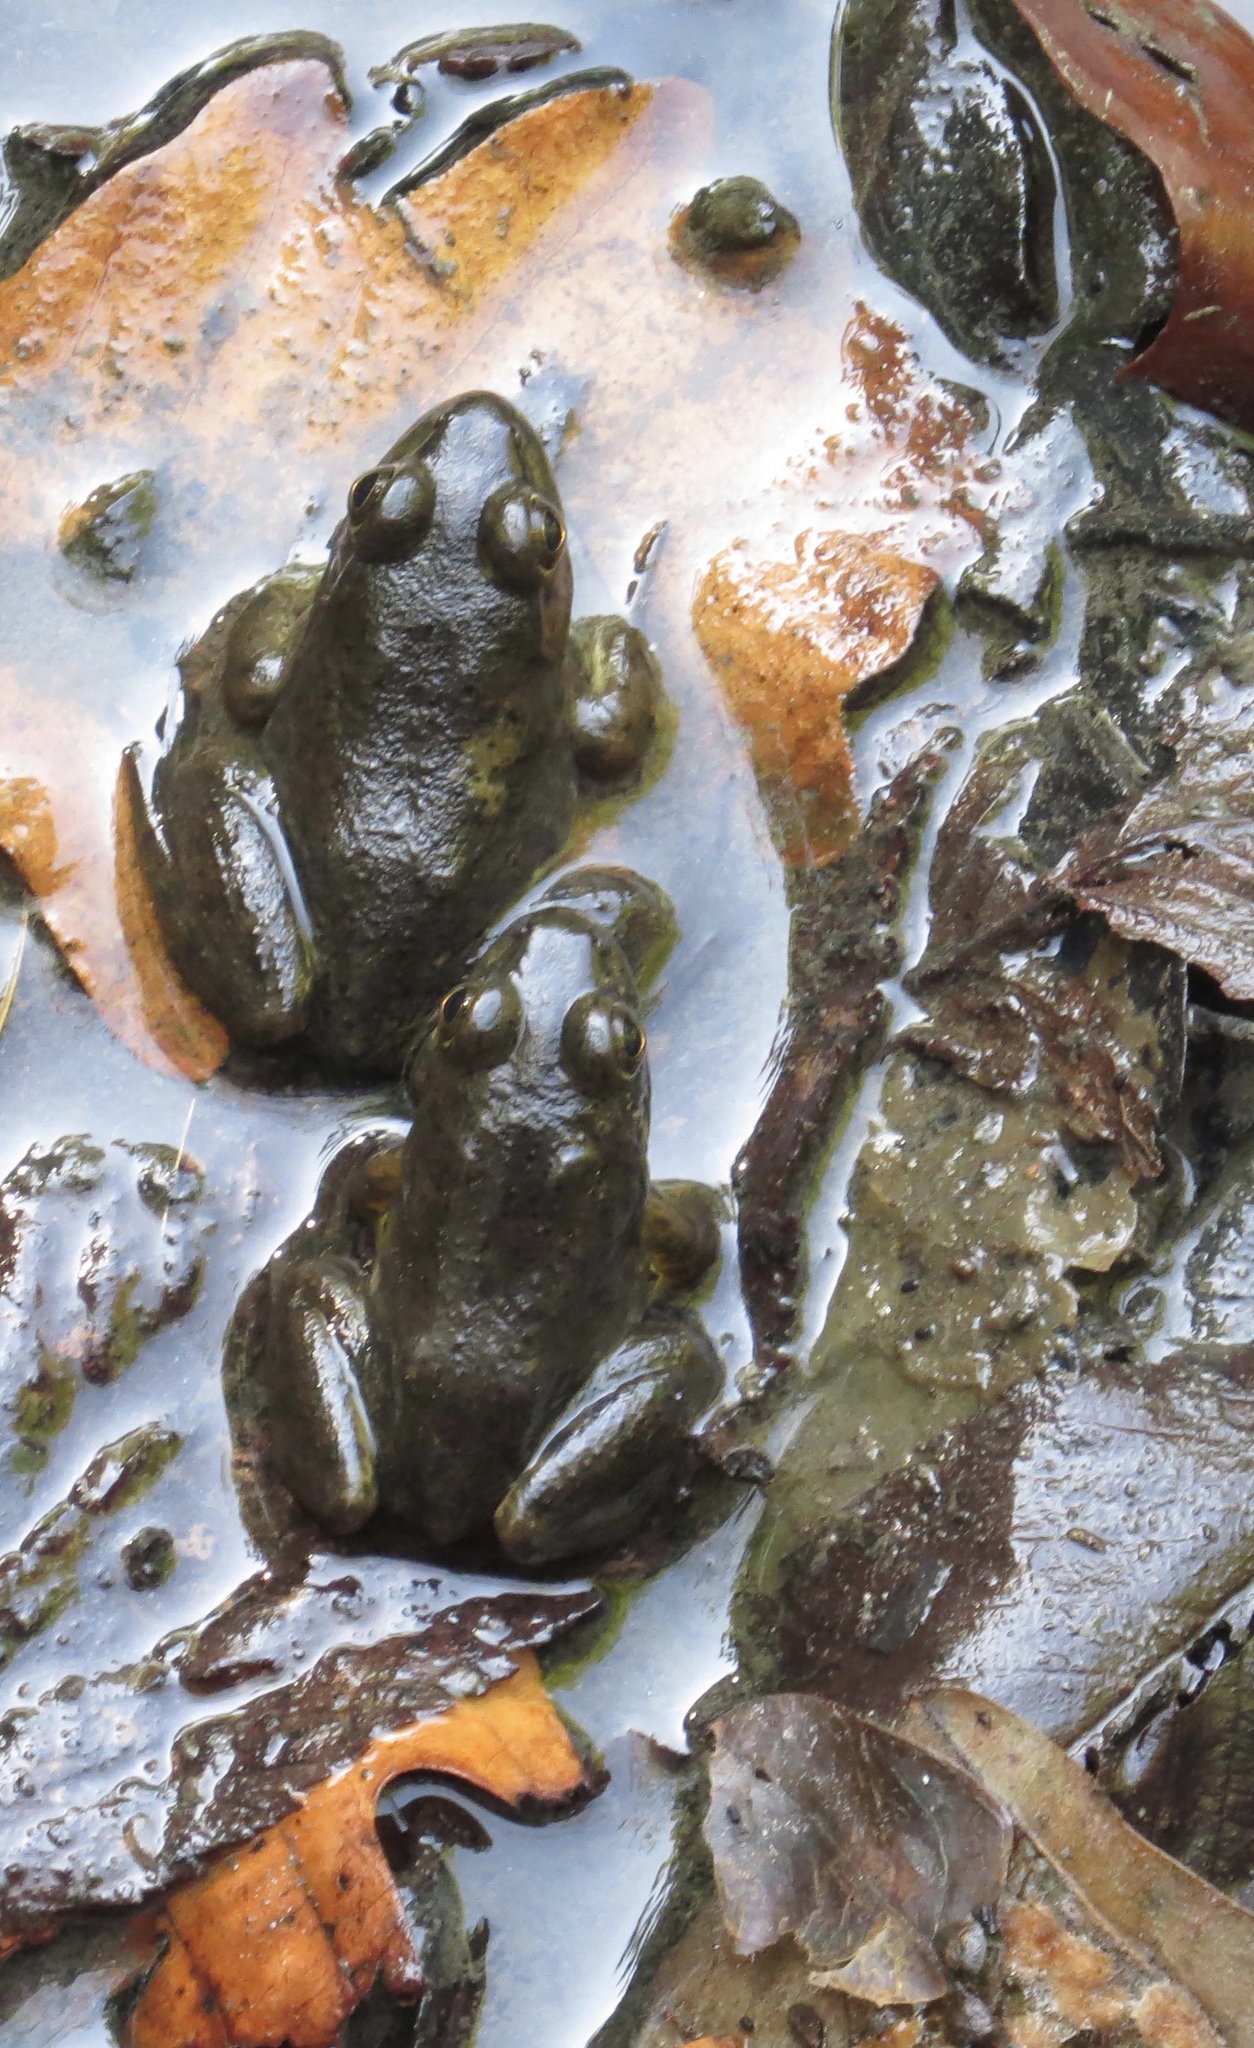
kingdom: Animalia
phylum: Chordata
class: Amphibia
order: Anura
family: Ranidae
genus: Lithobates
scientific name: Lithobates catesbeianus
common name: American bullfrog
